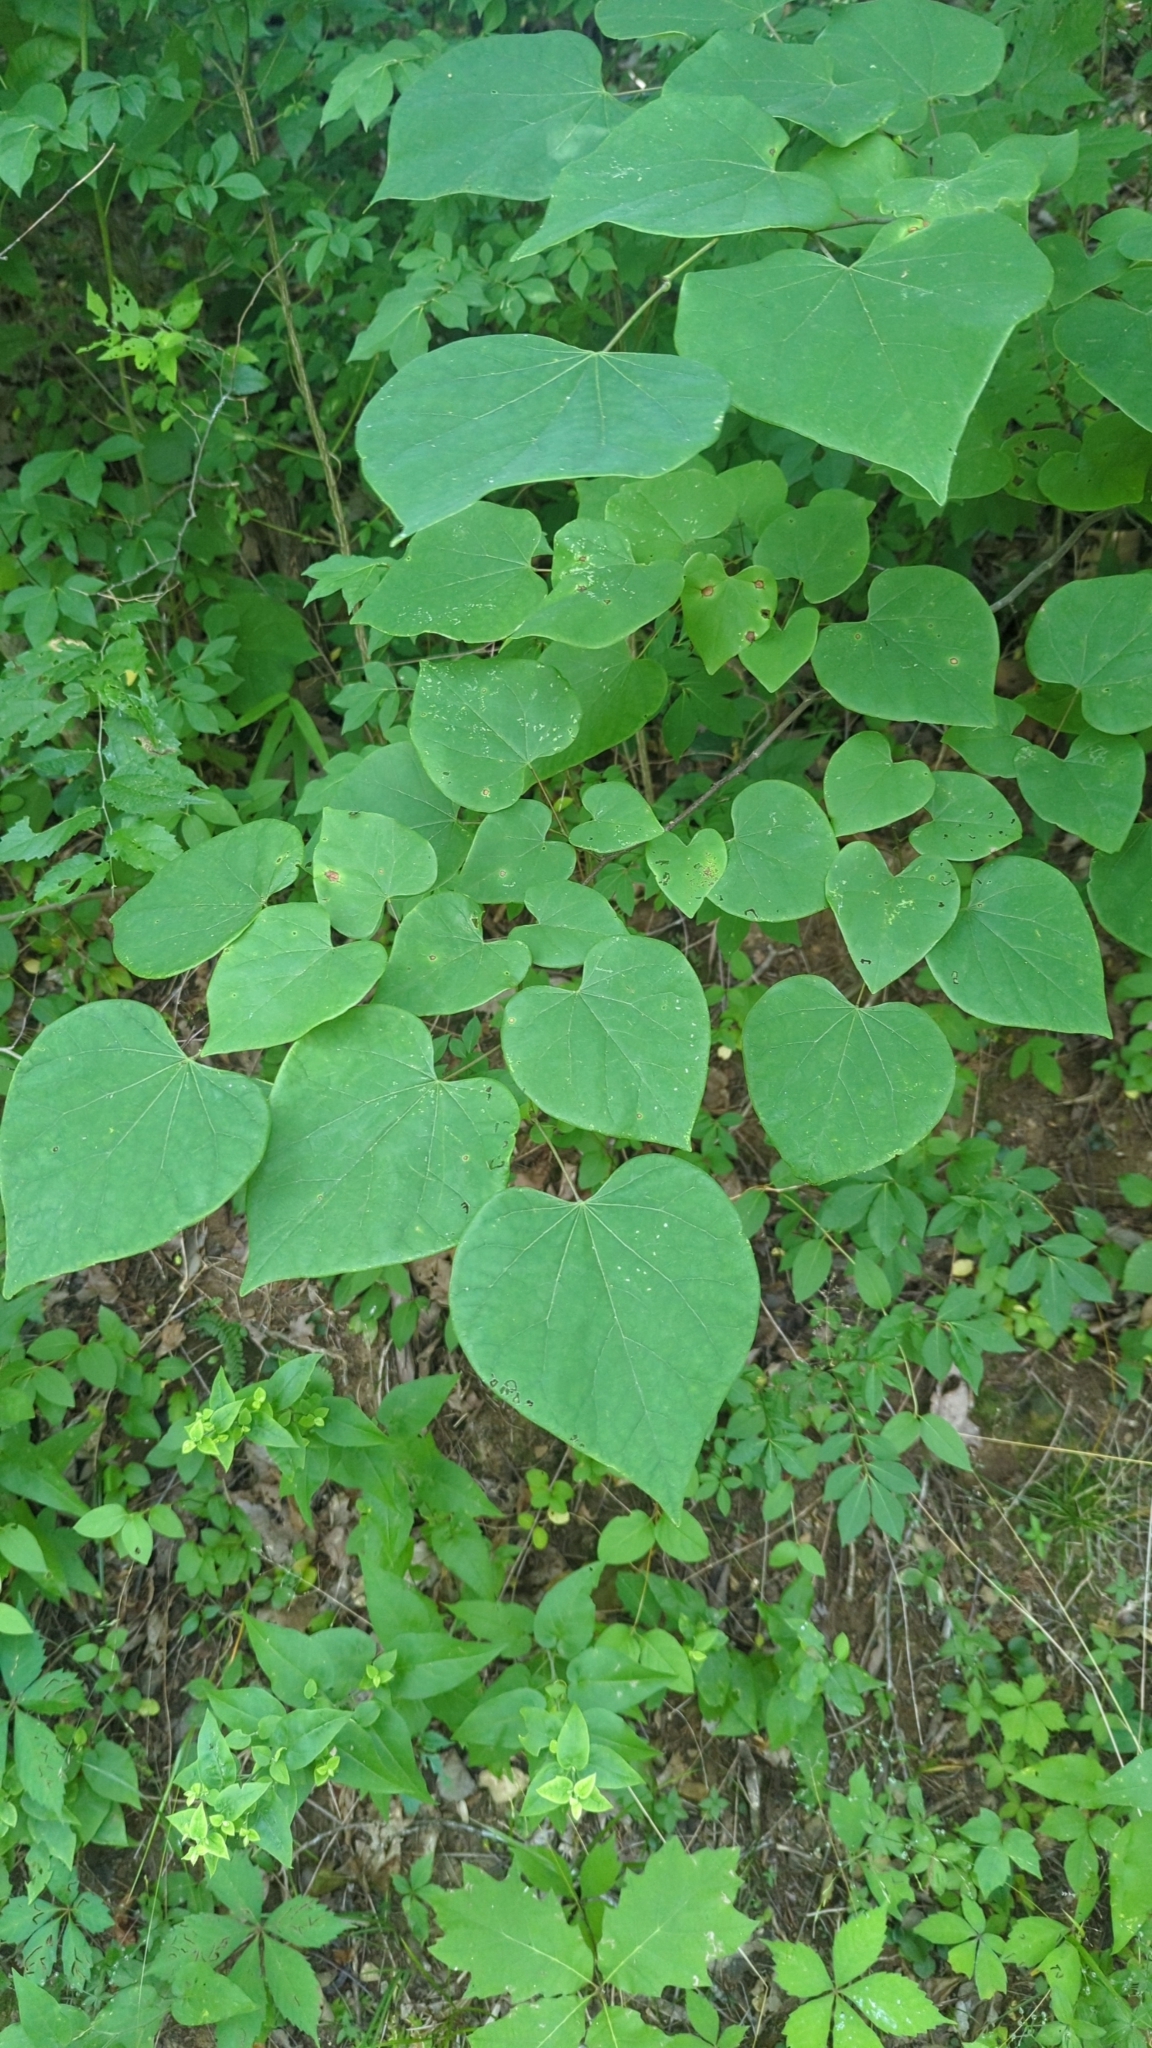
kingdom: Plantae
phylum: Tracheophyta
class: Magnoliopsida
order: Fabales
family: Fabaceae
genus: Cercis
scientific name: Cercis canadensis
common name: Eastern redbud
